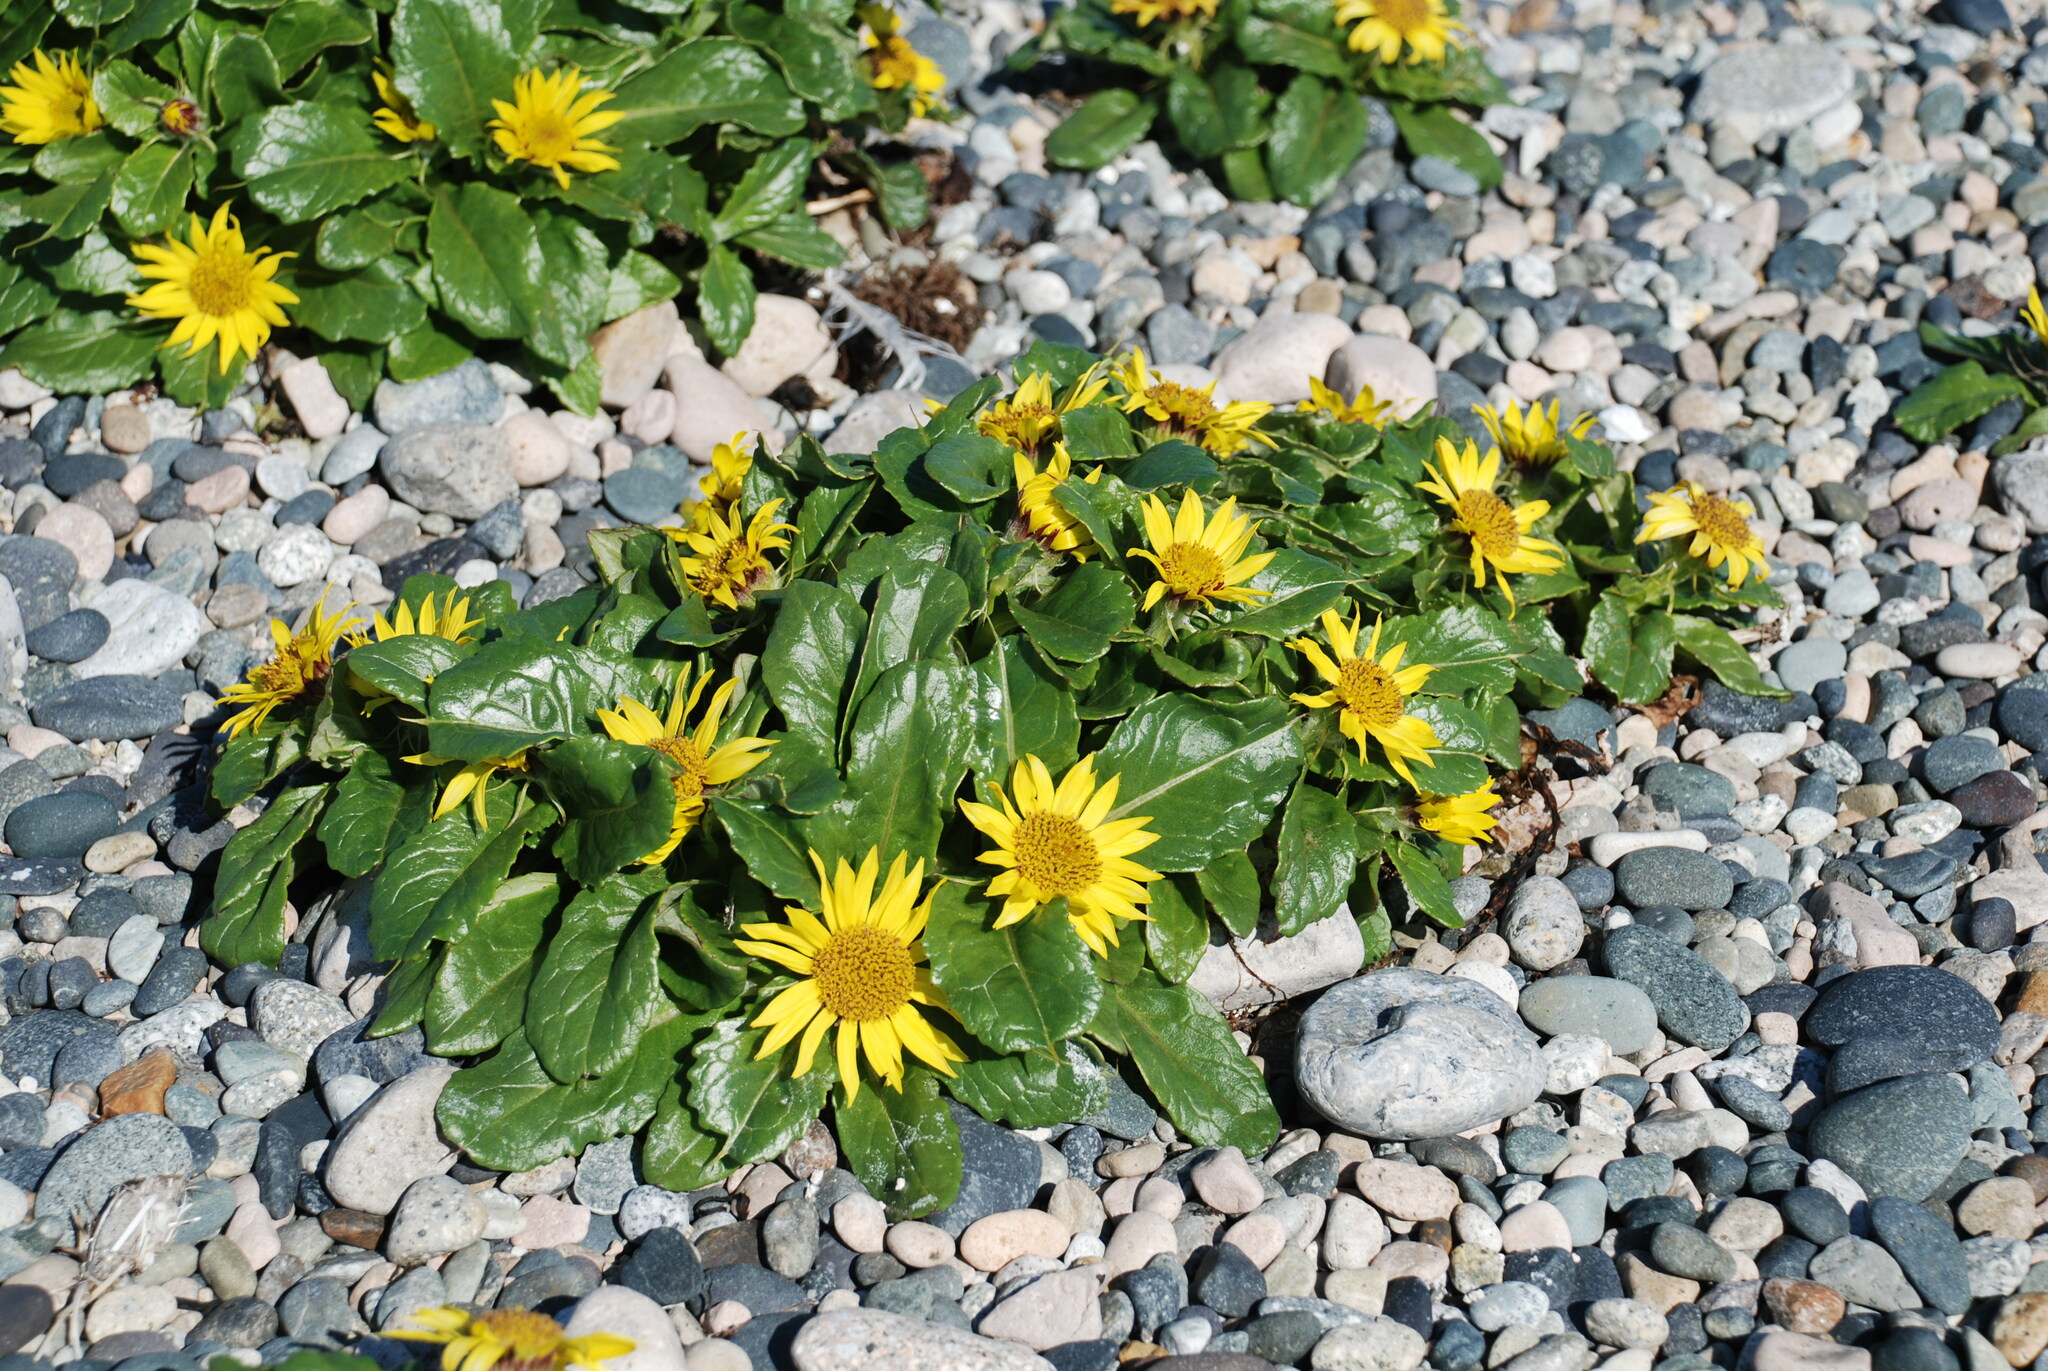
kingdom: Plantae
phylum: Tracheophyta
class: Magnoliopsida
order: Asterales
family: Asteraceae
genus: Jacobaea
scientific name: Jacobaea pseudoarnica
